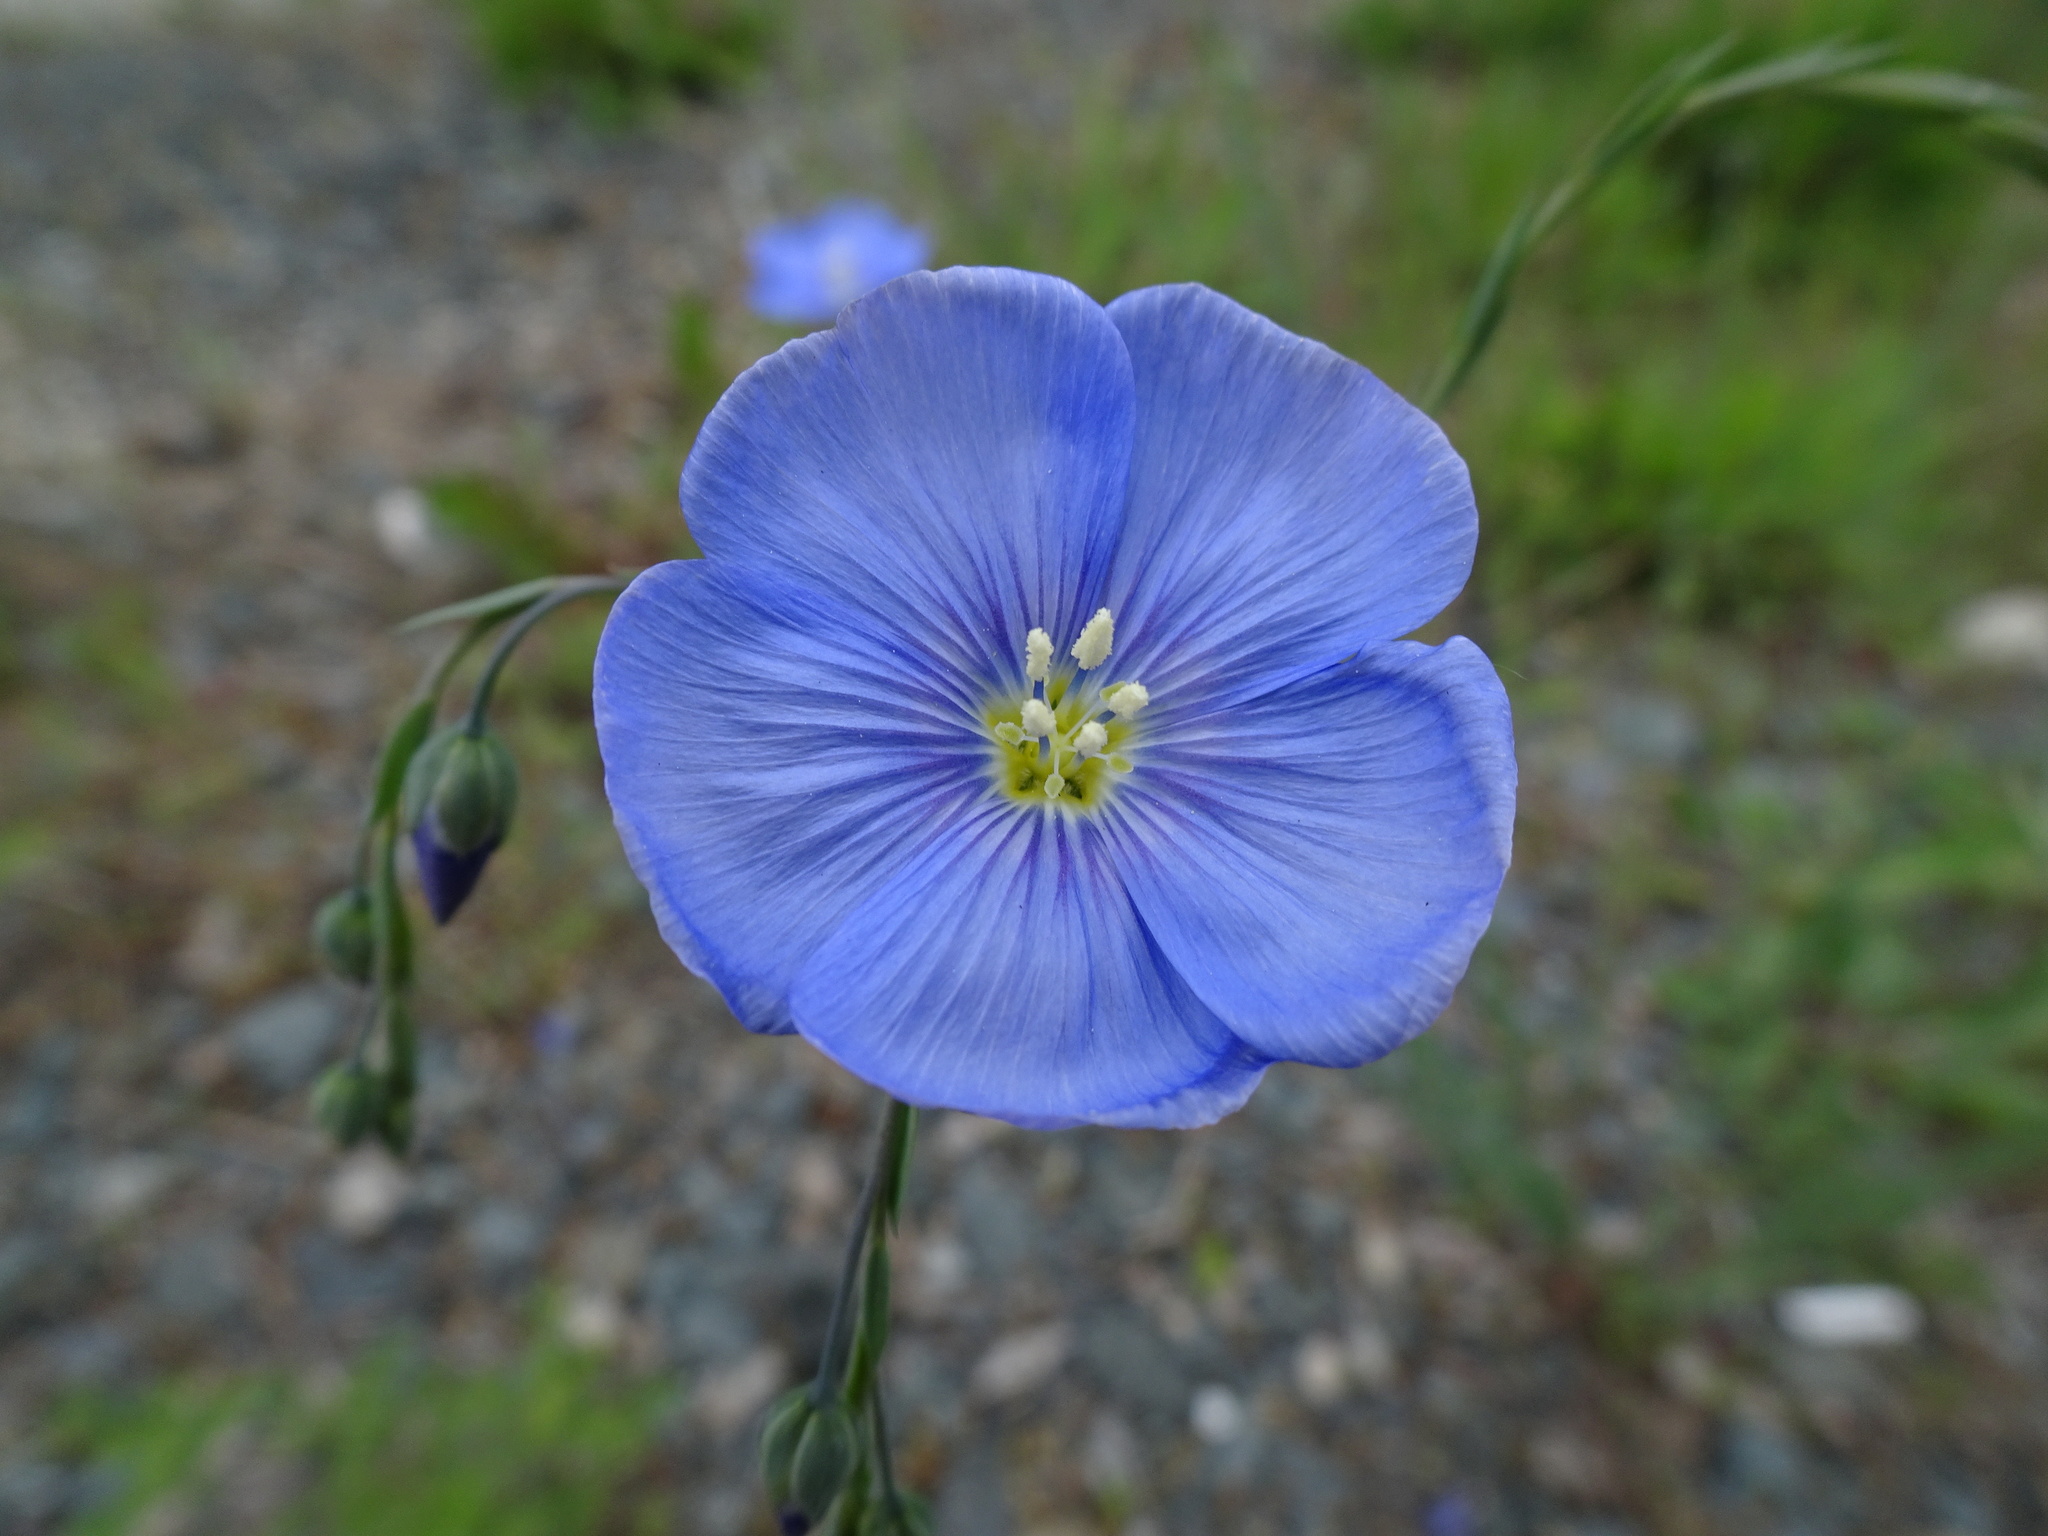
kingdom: Plantae
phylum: Tracheophyta
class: Magnoliopsida
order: Malpighiales
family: Linaceae
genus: Linum
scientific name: Linum austriacum
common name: Austrian flax
